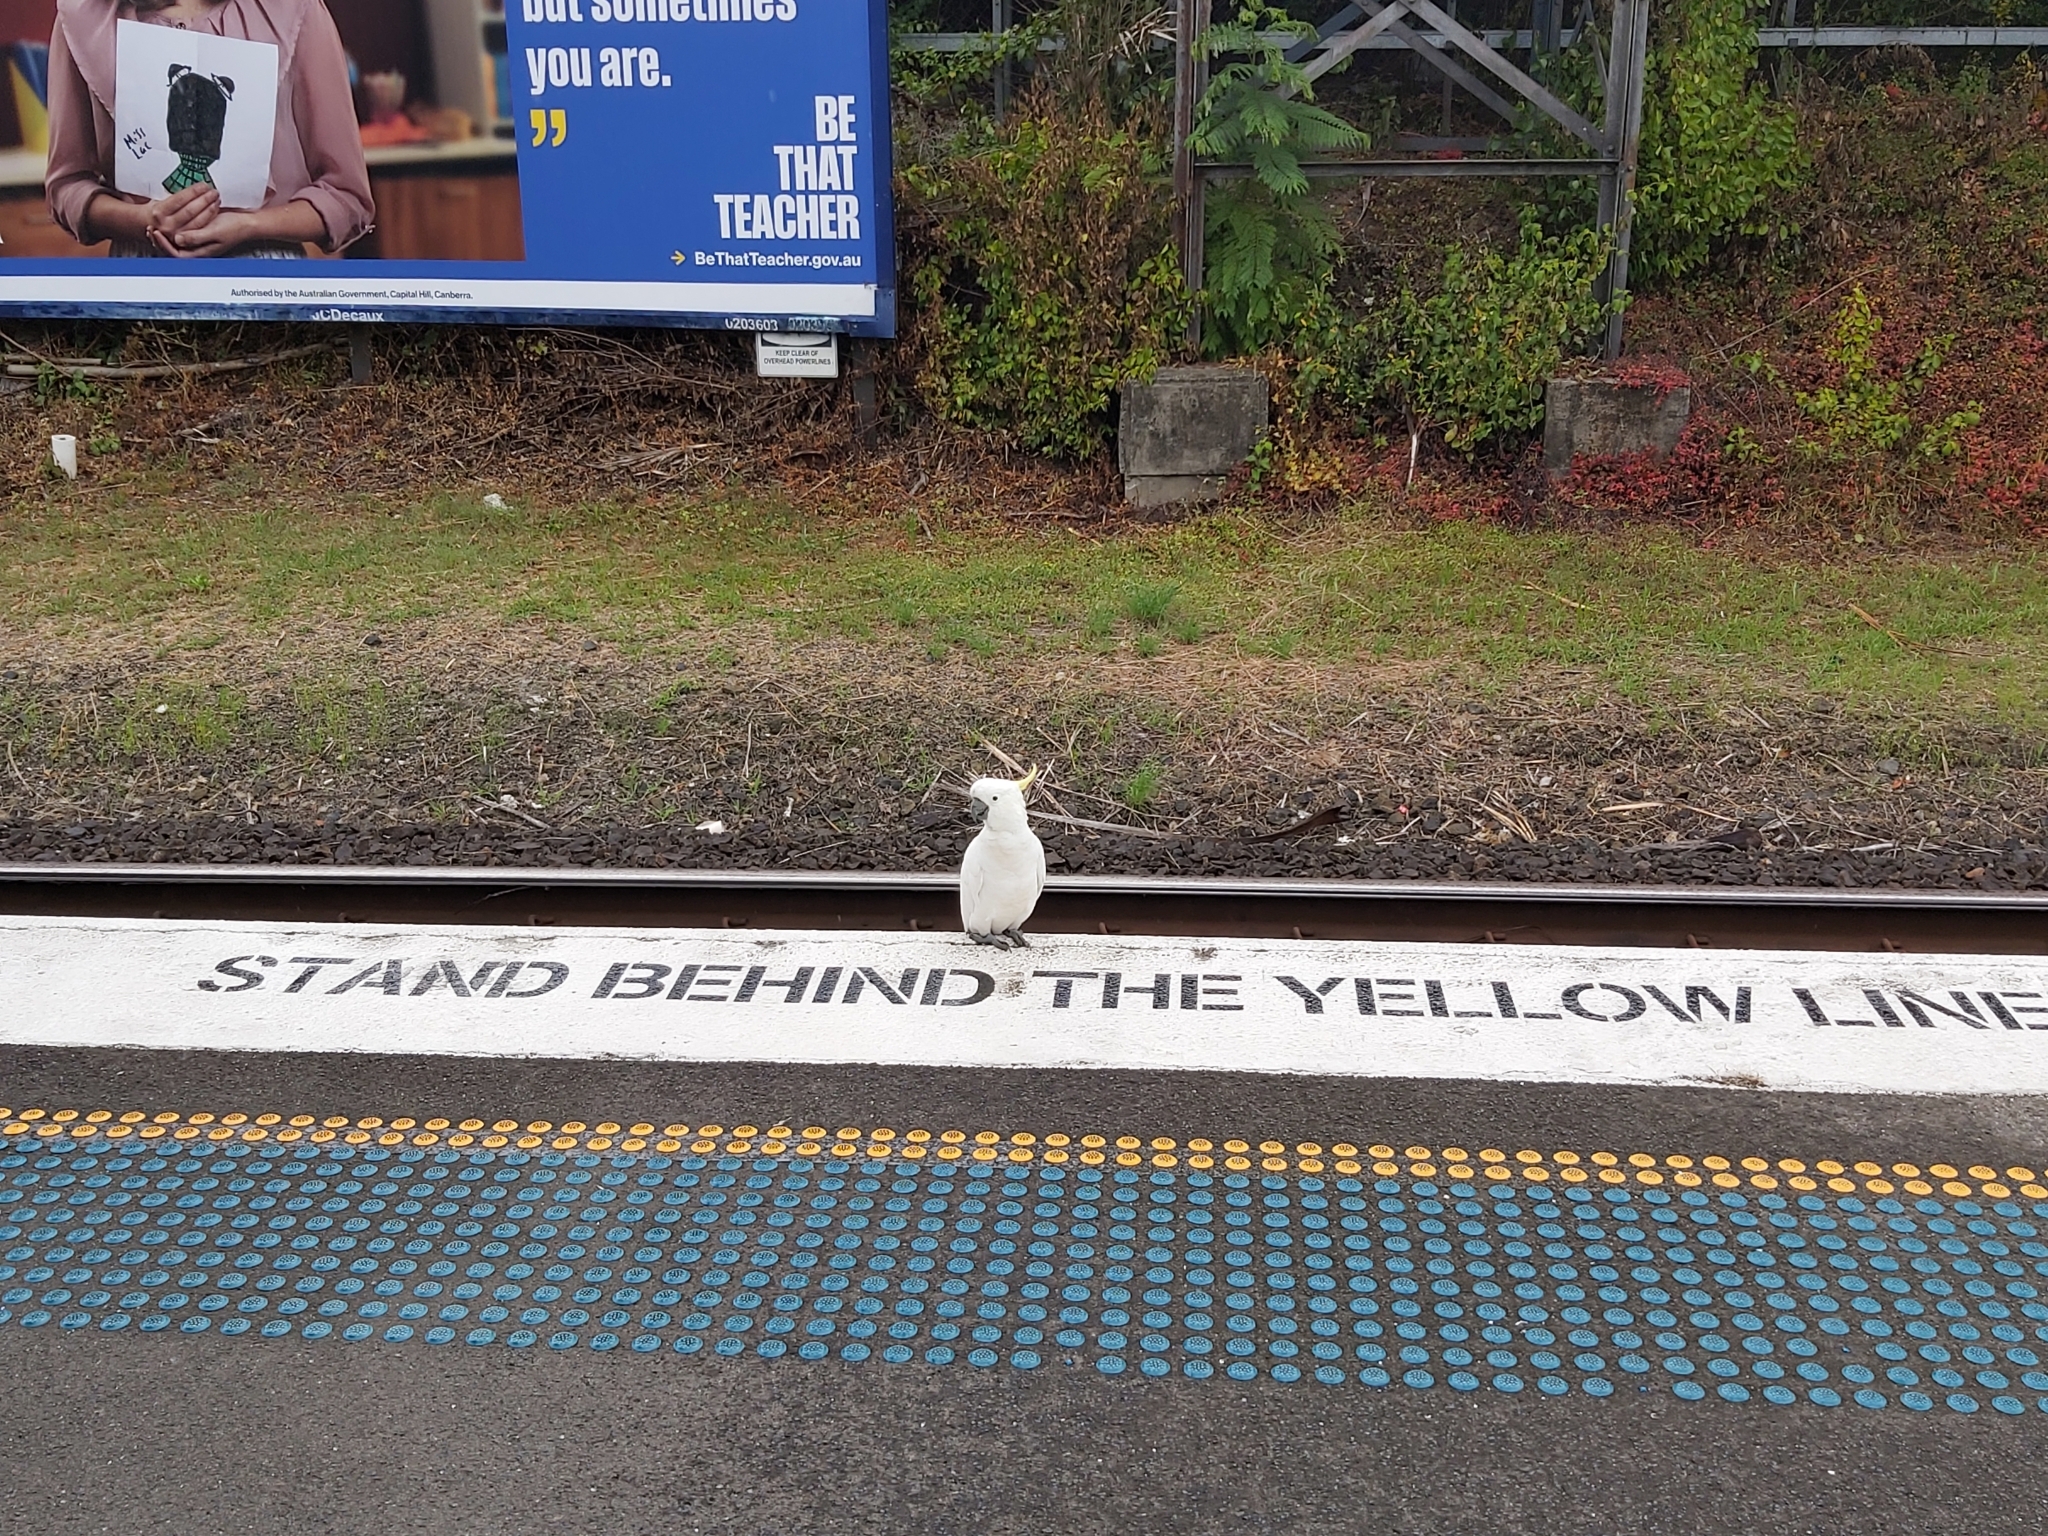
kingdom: Animalia
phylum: Chordata
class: Aves
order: Psittaciformes
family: Psittacidae
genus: Cacatua
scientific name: Cacatua galerita
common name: Sulphur-crested cockatoo
